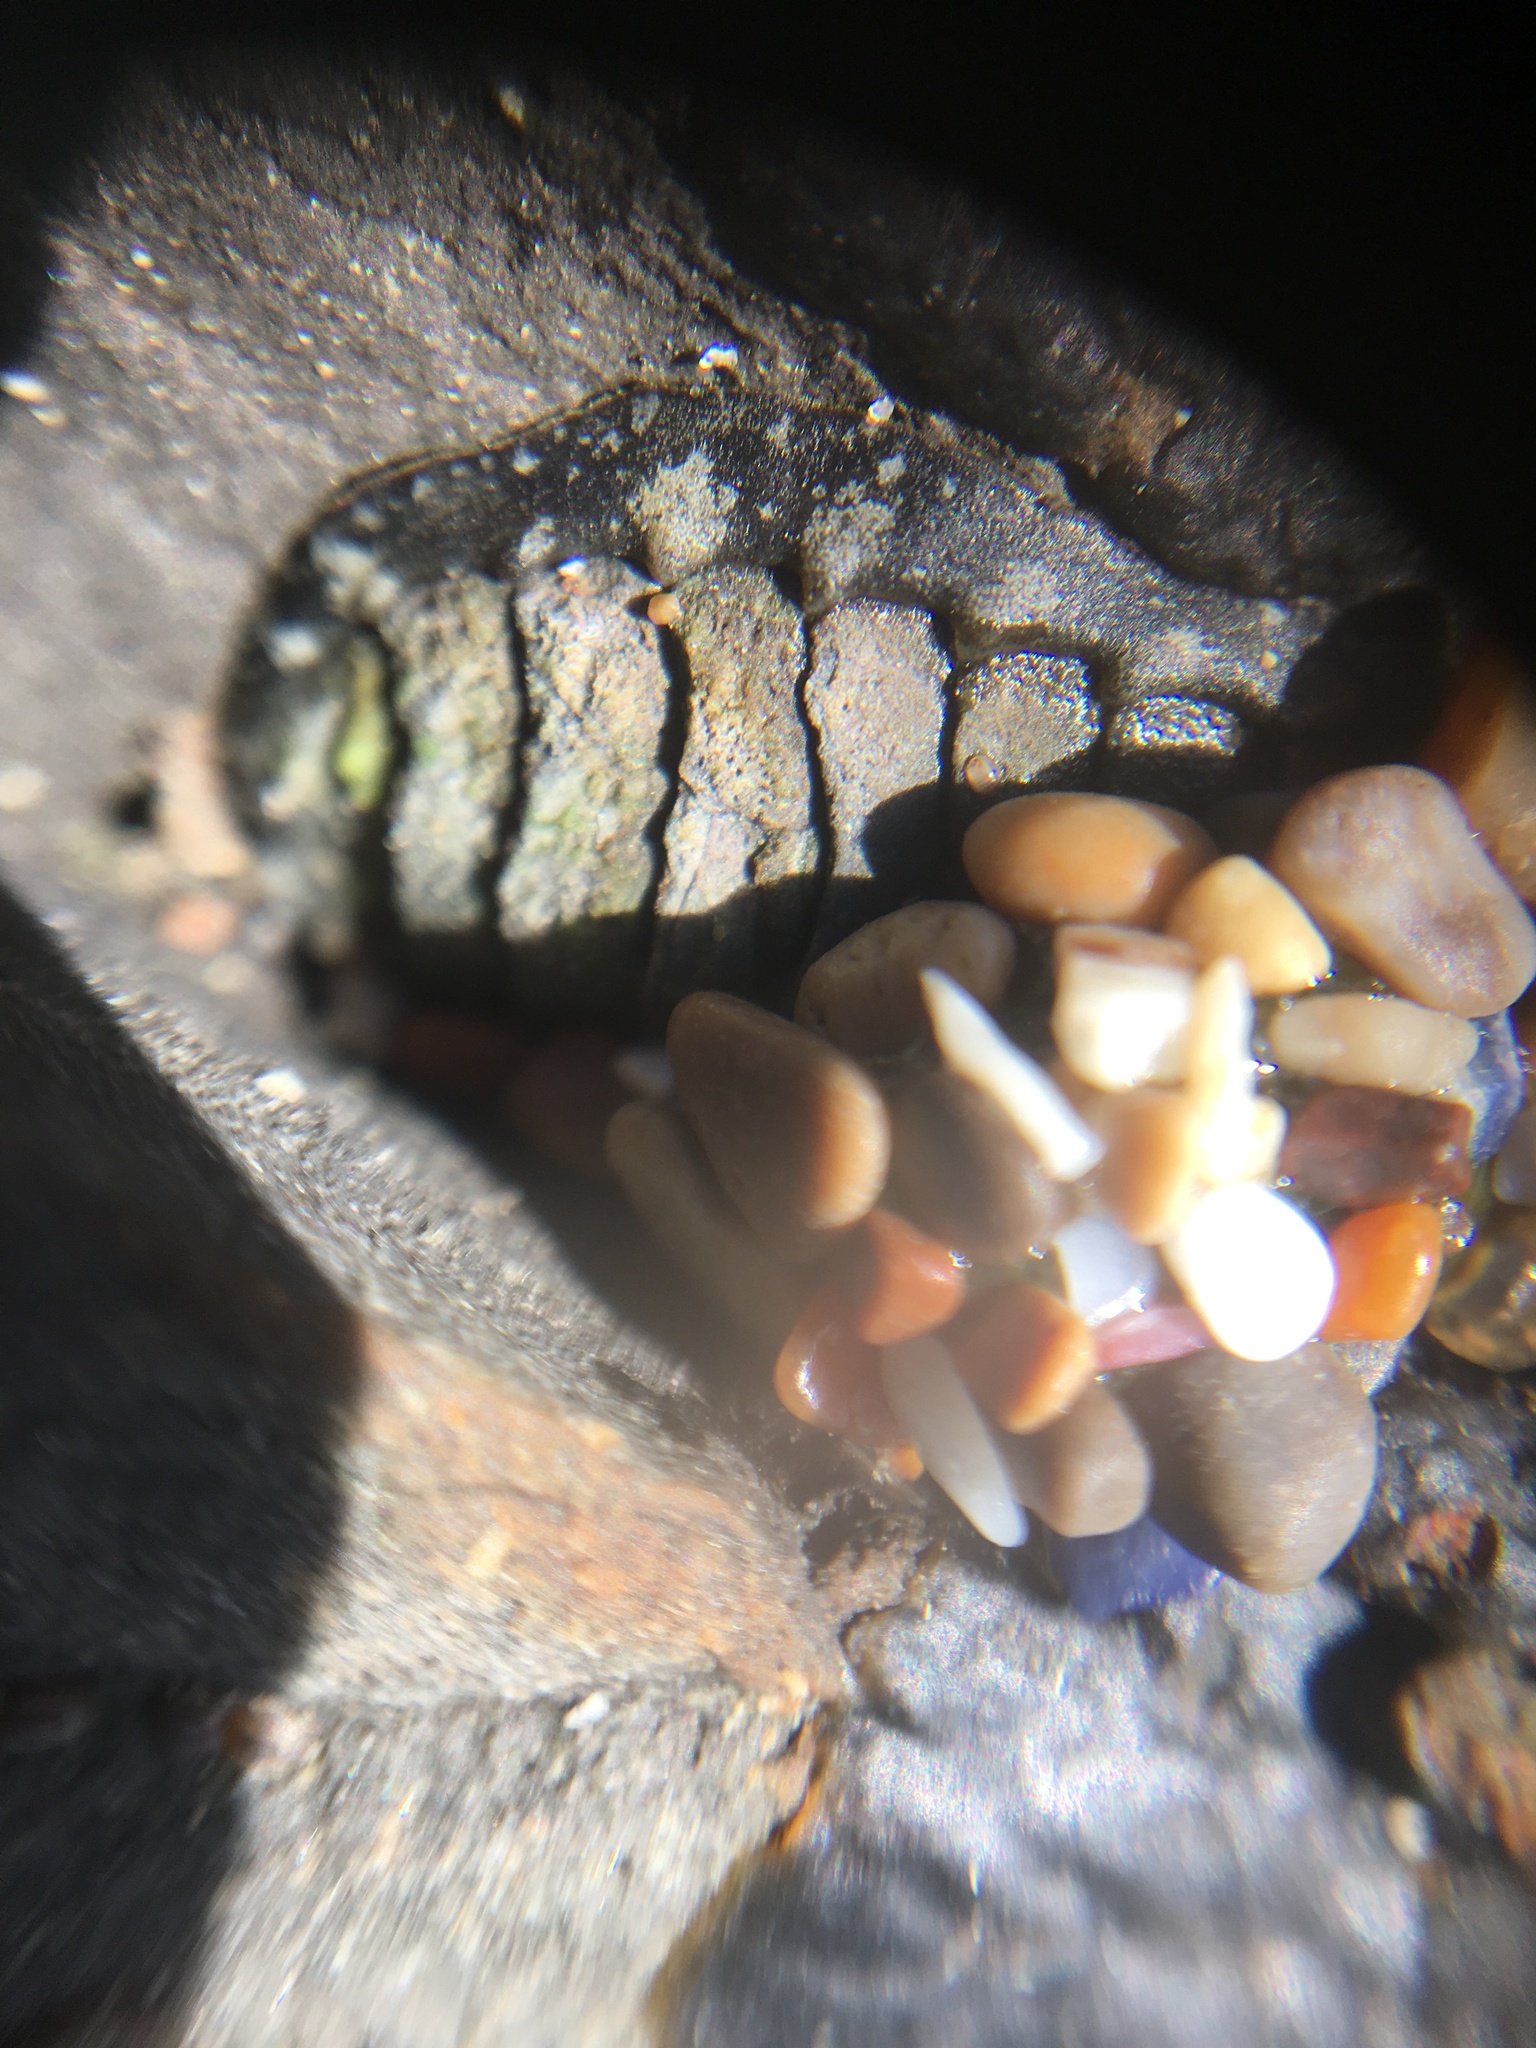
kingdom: Animalia
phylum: Mollusca
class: Polyplacophora
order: Chitonida
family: Tonicellidae
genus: Cyanoplax
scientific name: Cyanoplax hartwegii
